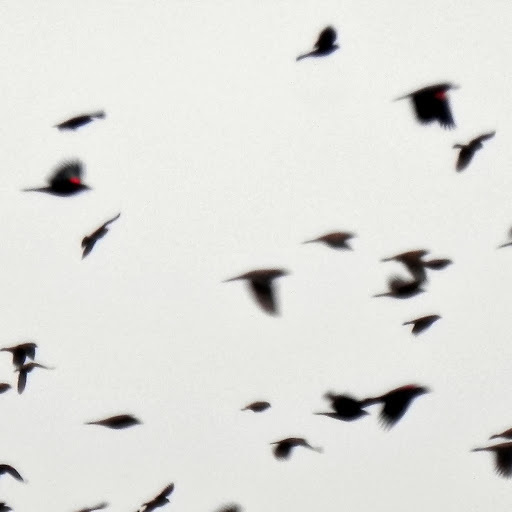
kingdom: Animalia
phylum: Chordata
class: Aves
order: Passeriformes
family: Icteridae
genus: Agelaius
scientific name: Agelaius phoeniceus
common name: Red-winged blackbird
